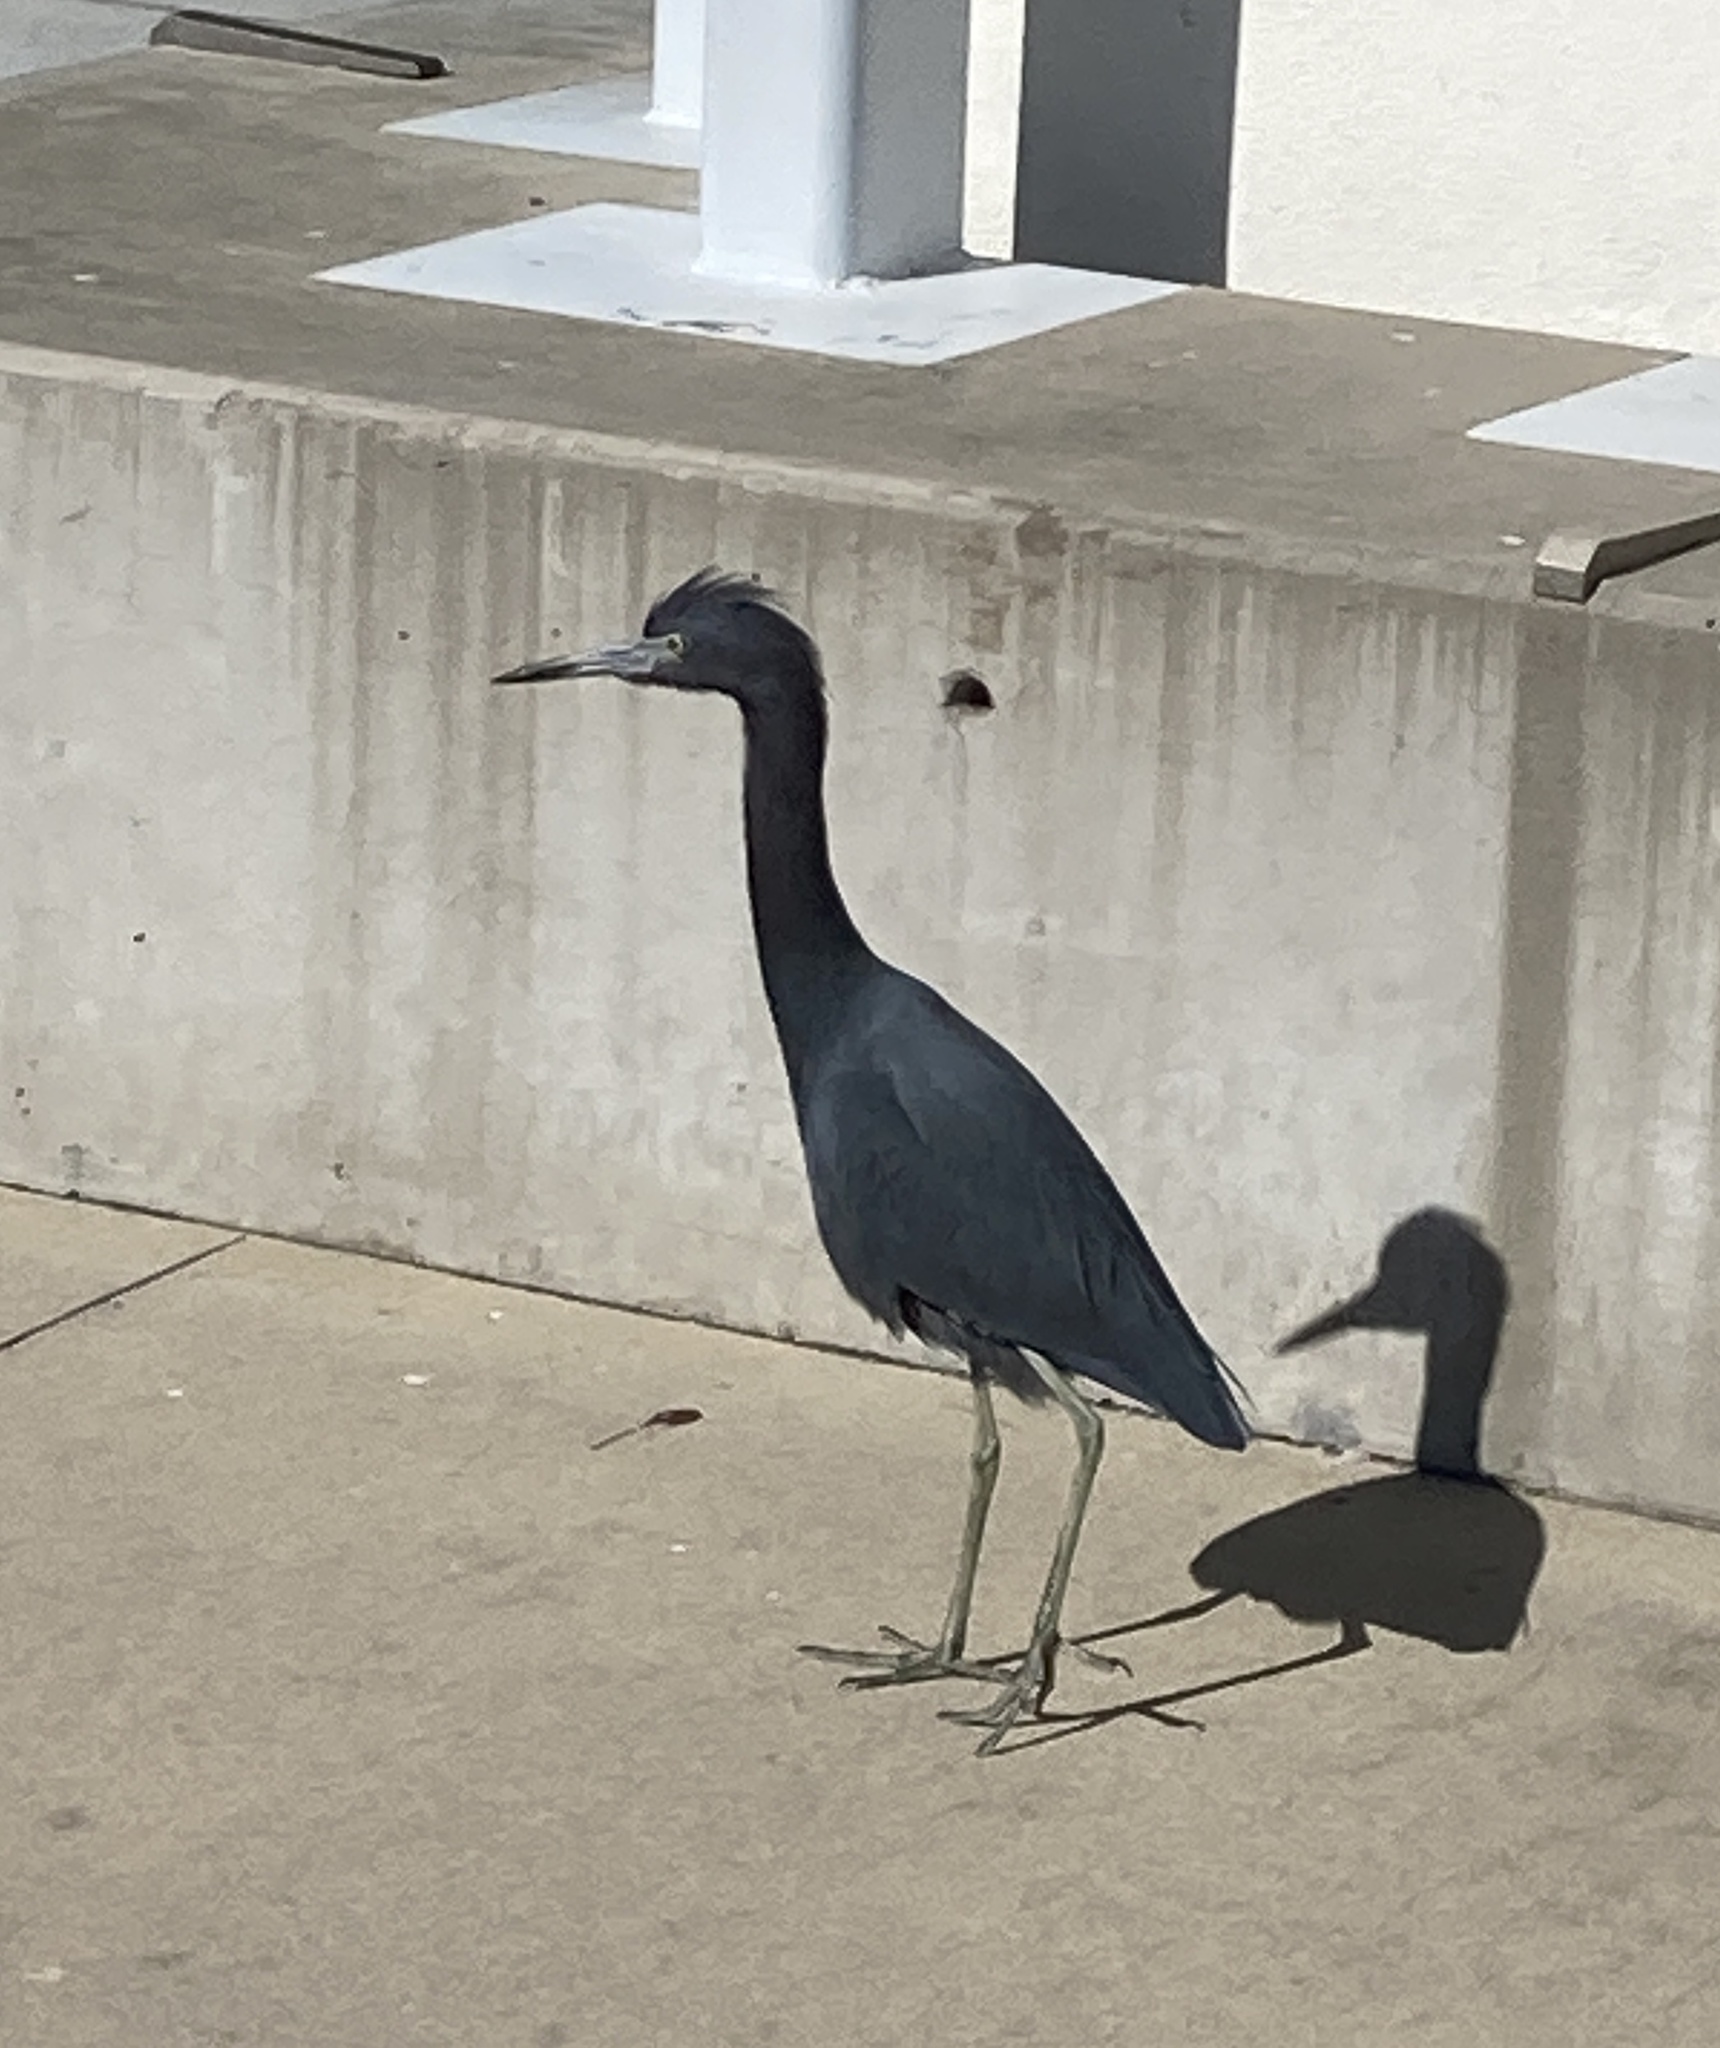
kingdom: Animalia
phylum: Chordata
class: Aves
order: Pelecaniformes
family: Ardeidae
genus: Egretta
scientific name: Egretta caerulea
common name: Little blue heron
